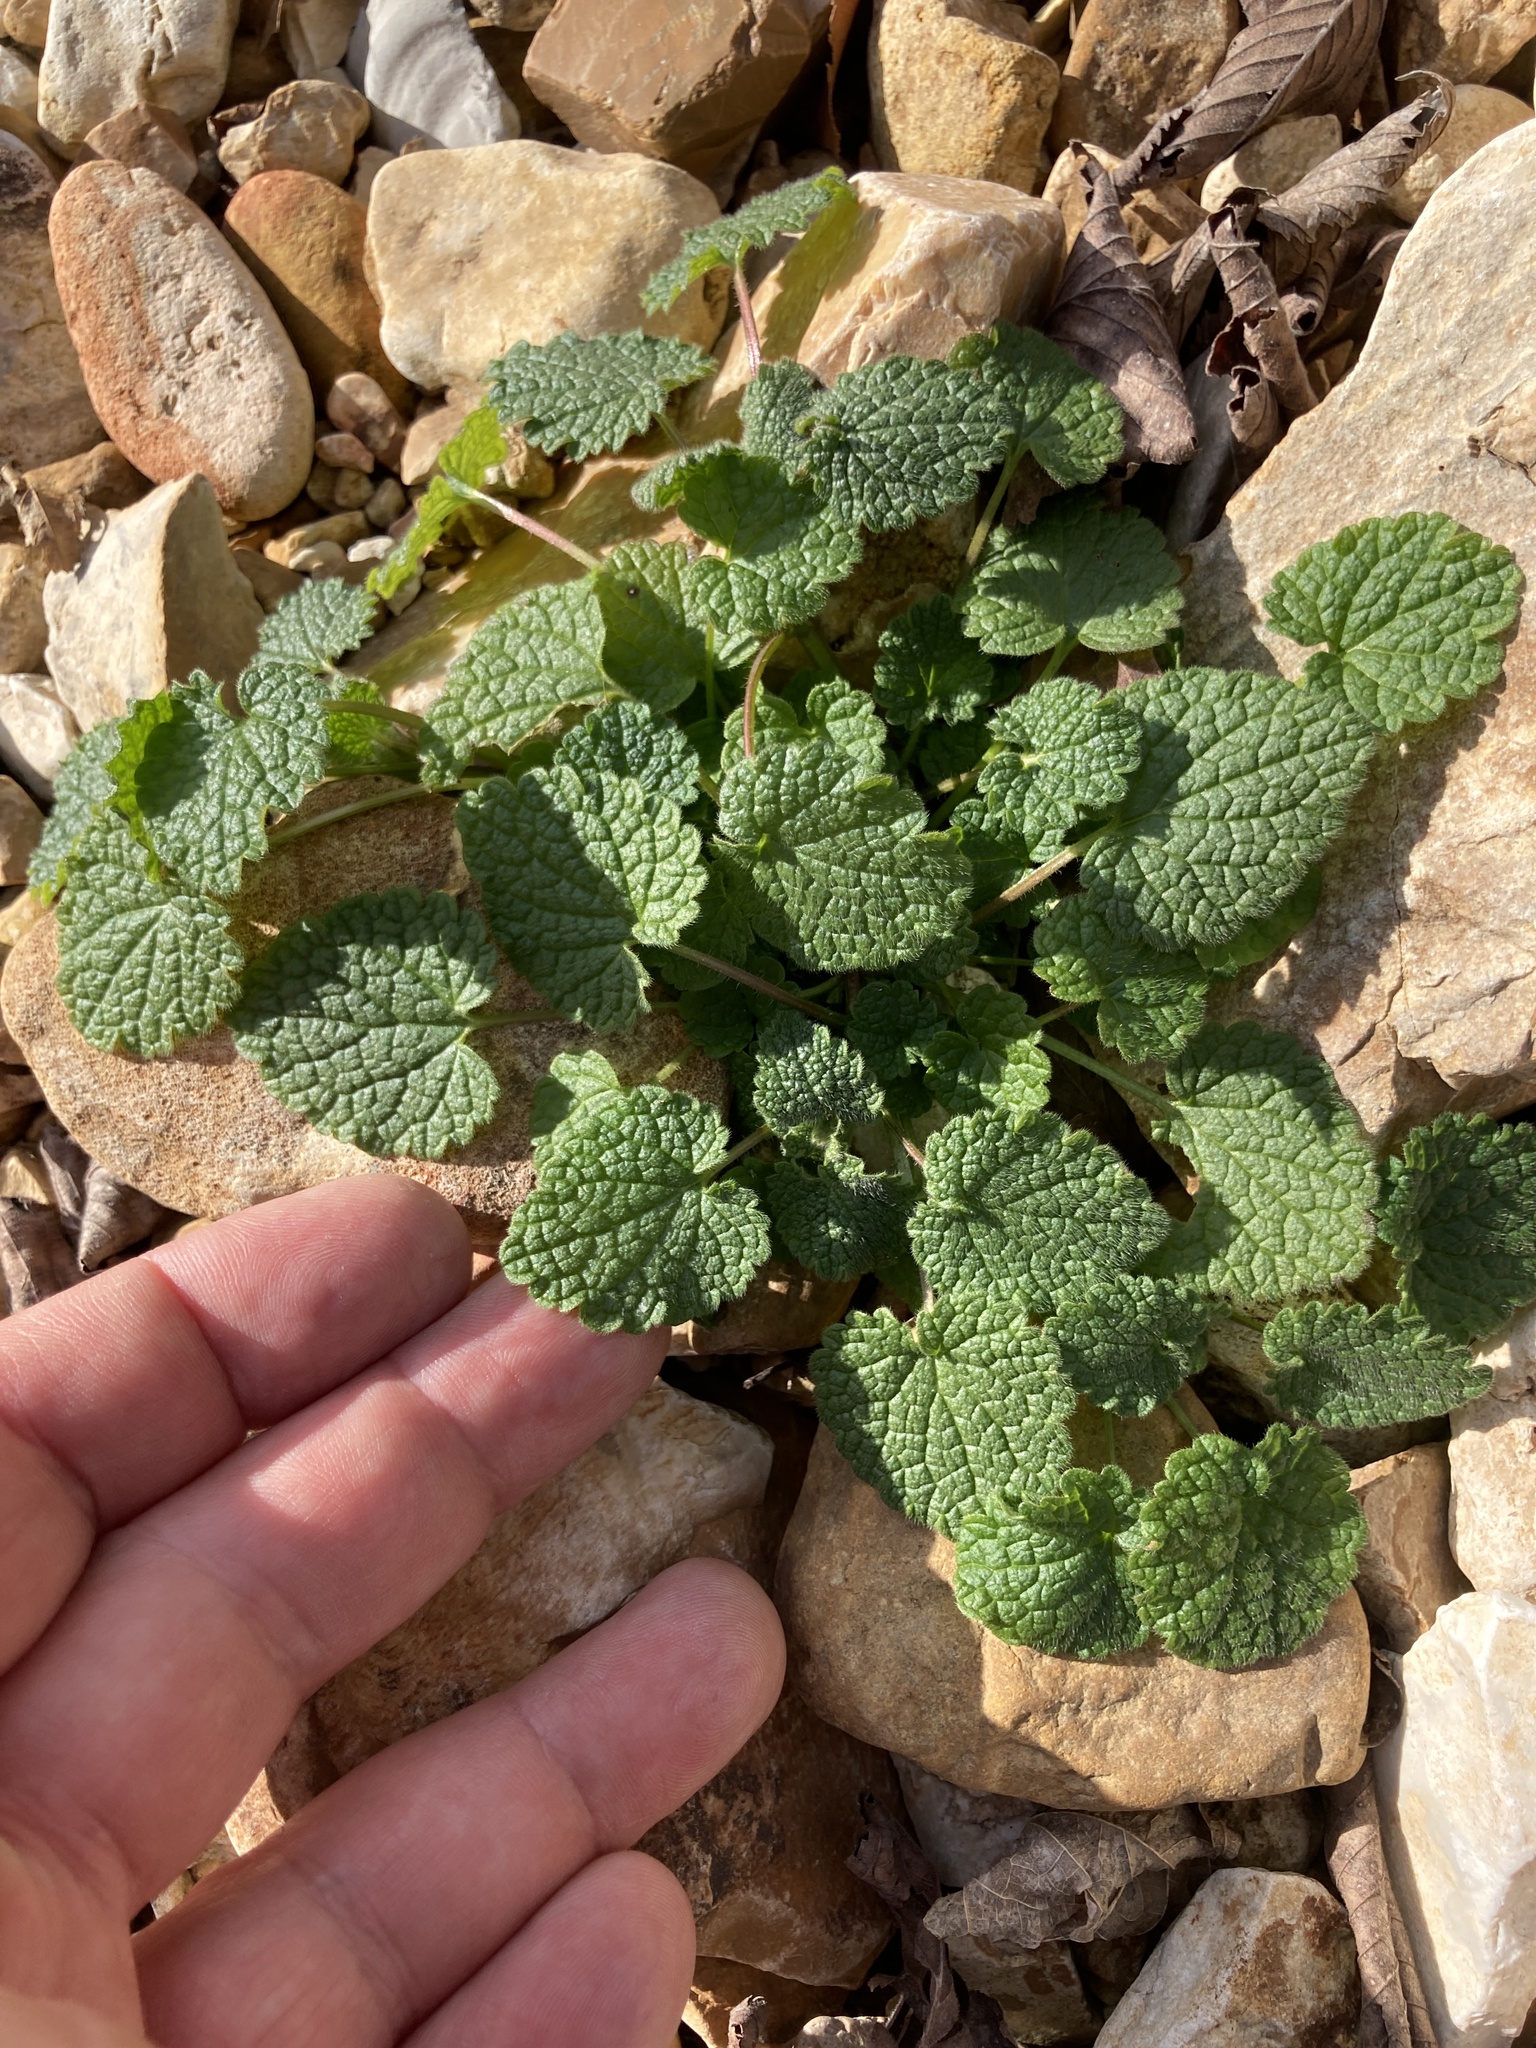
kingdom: Plantae
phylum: Tracheophyta
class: Magnoliopsida
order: Lamiales
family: Lamiaceae
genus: Lamium
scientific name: Lamium purpureum
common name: Red dead-nettle
